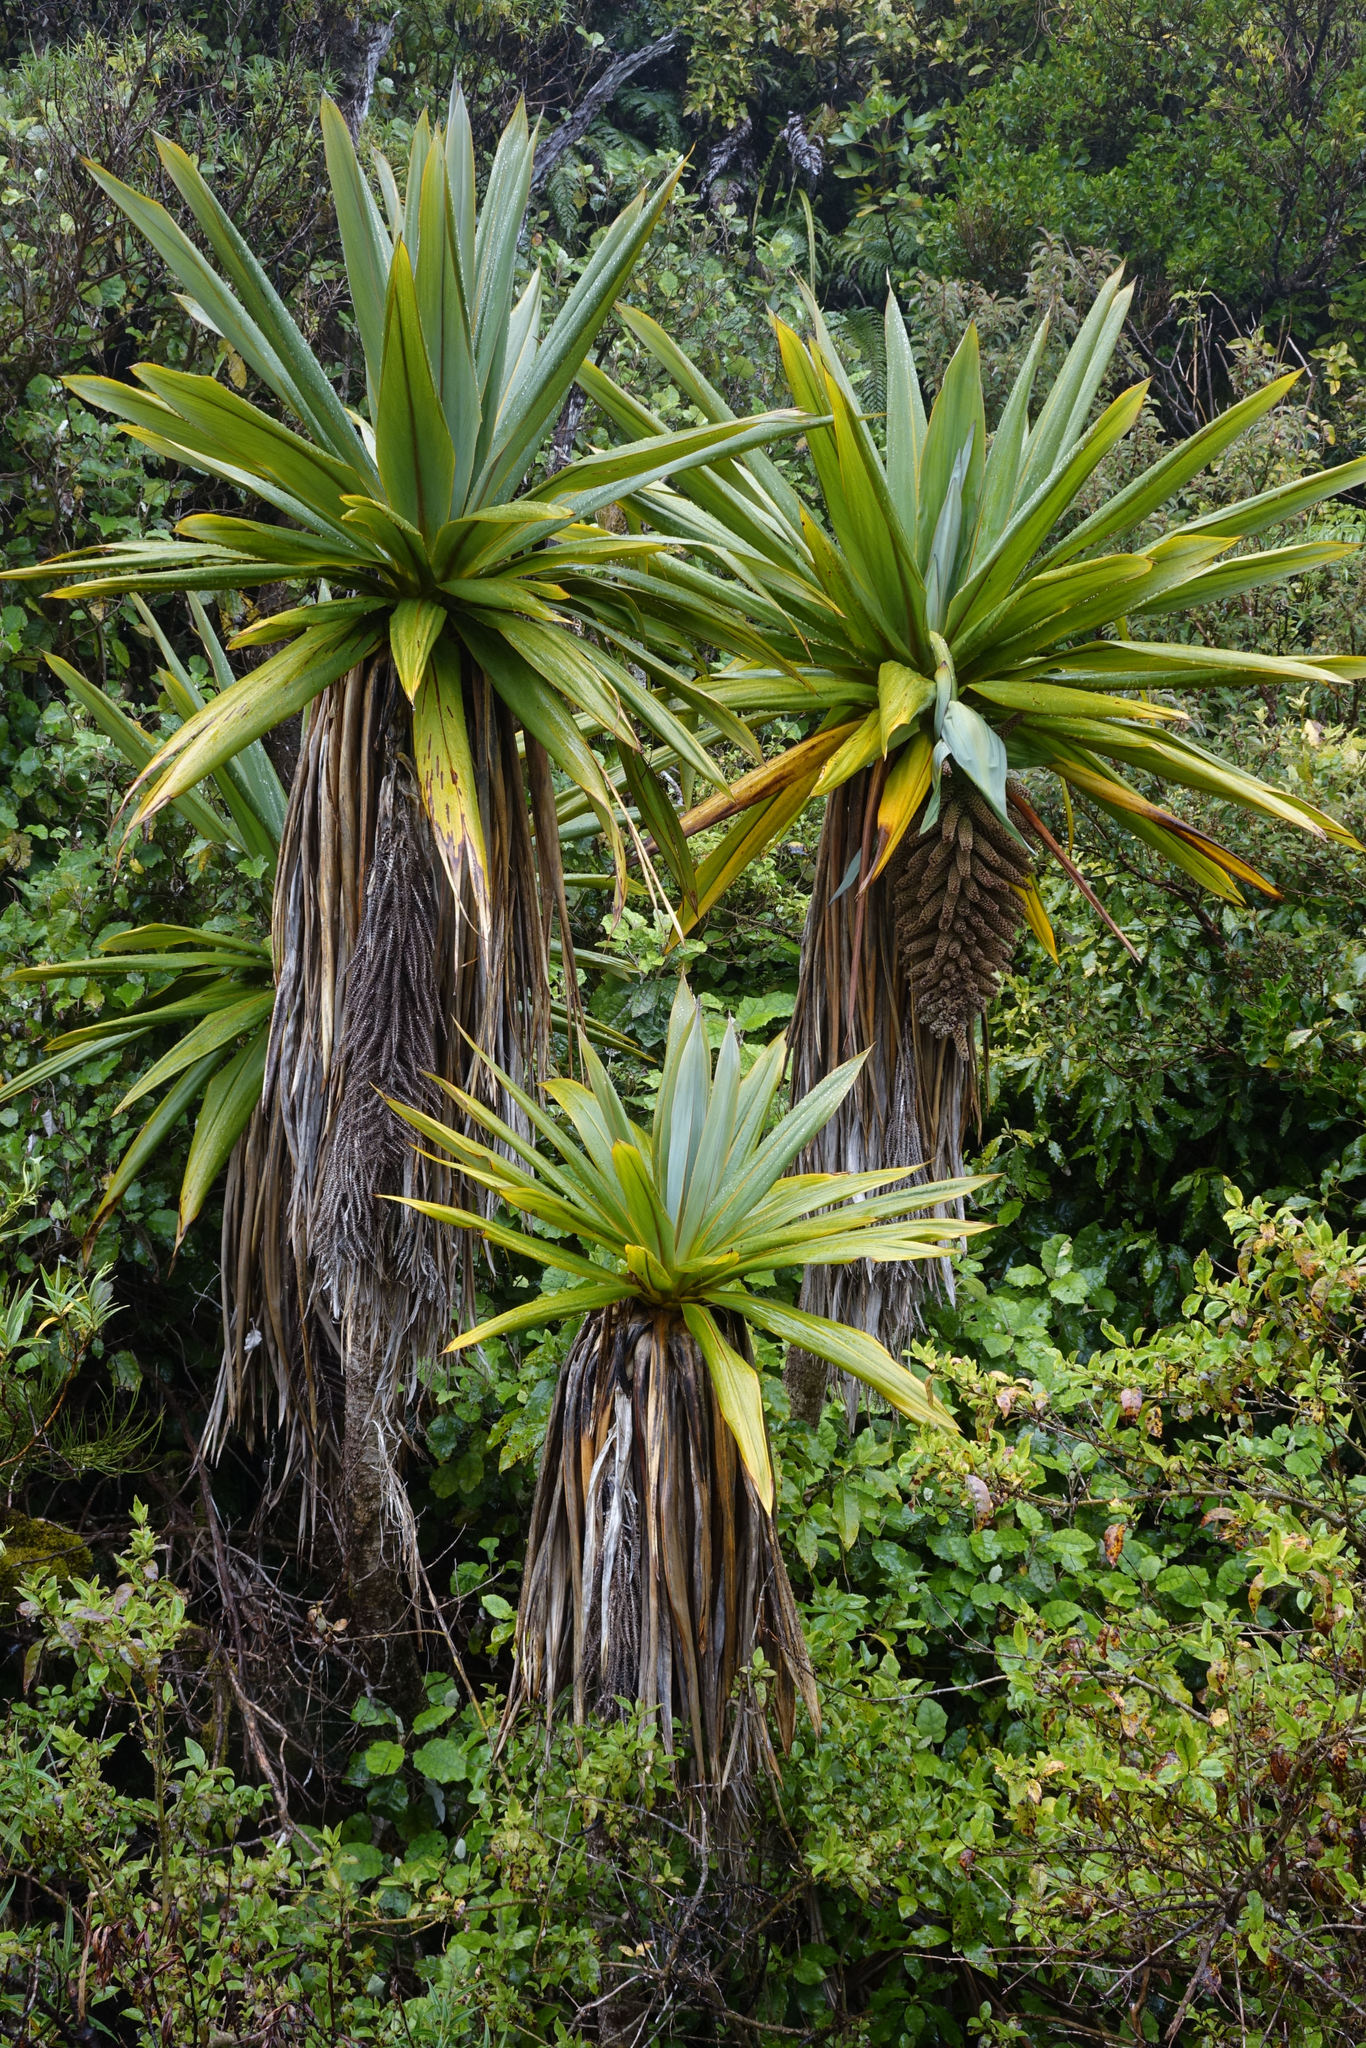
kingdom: Plantae
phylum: Tracheophyta
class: Liliopsida
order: Asparagales
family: Asparagaceae
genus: Cordyline
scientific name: Cordyline indivisa
